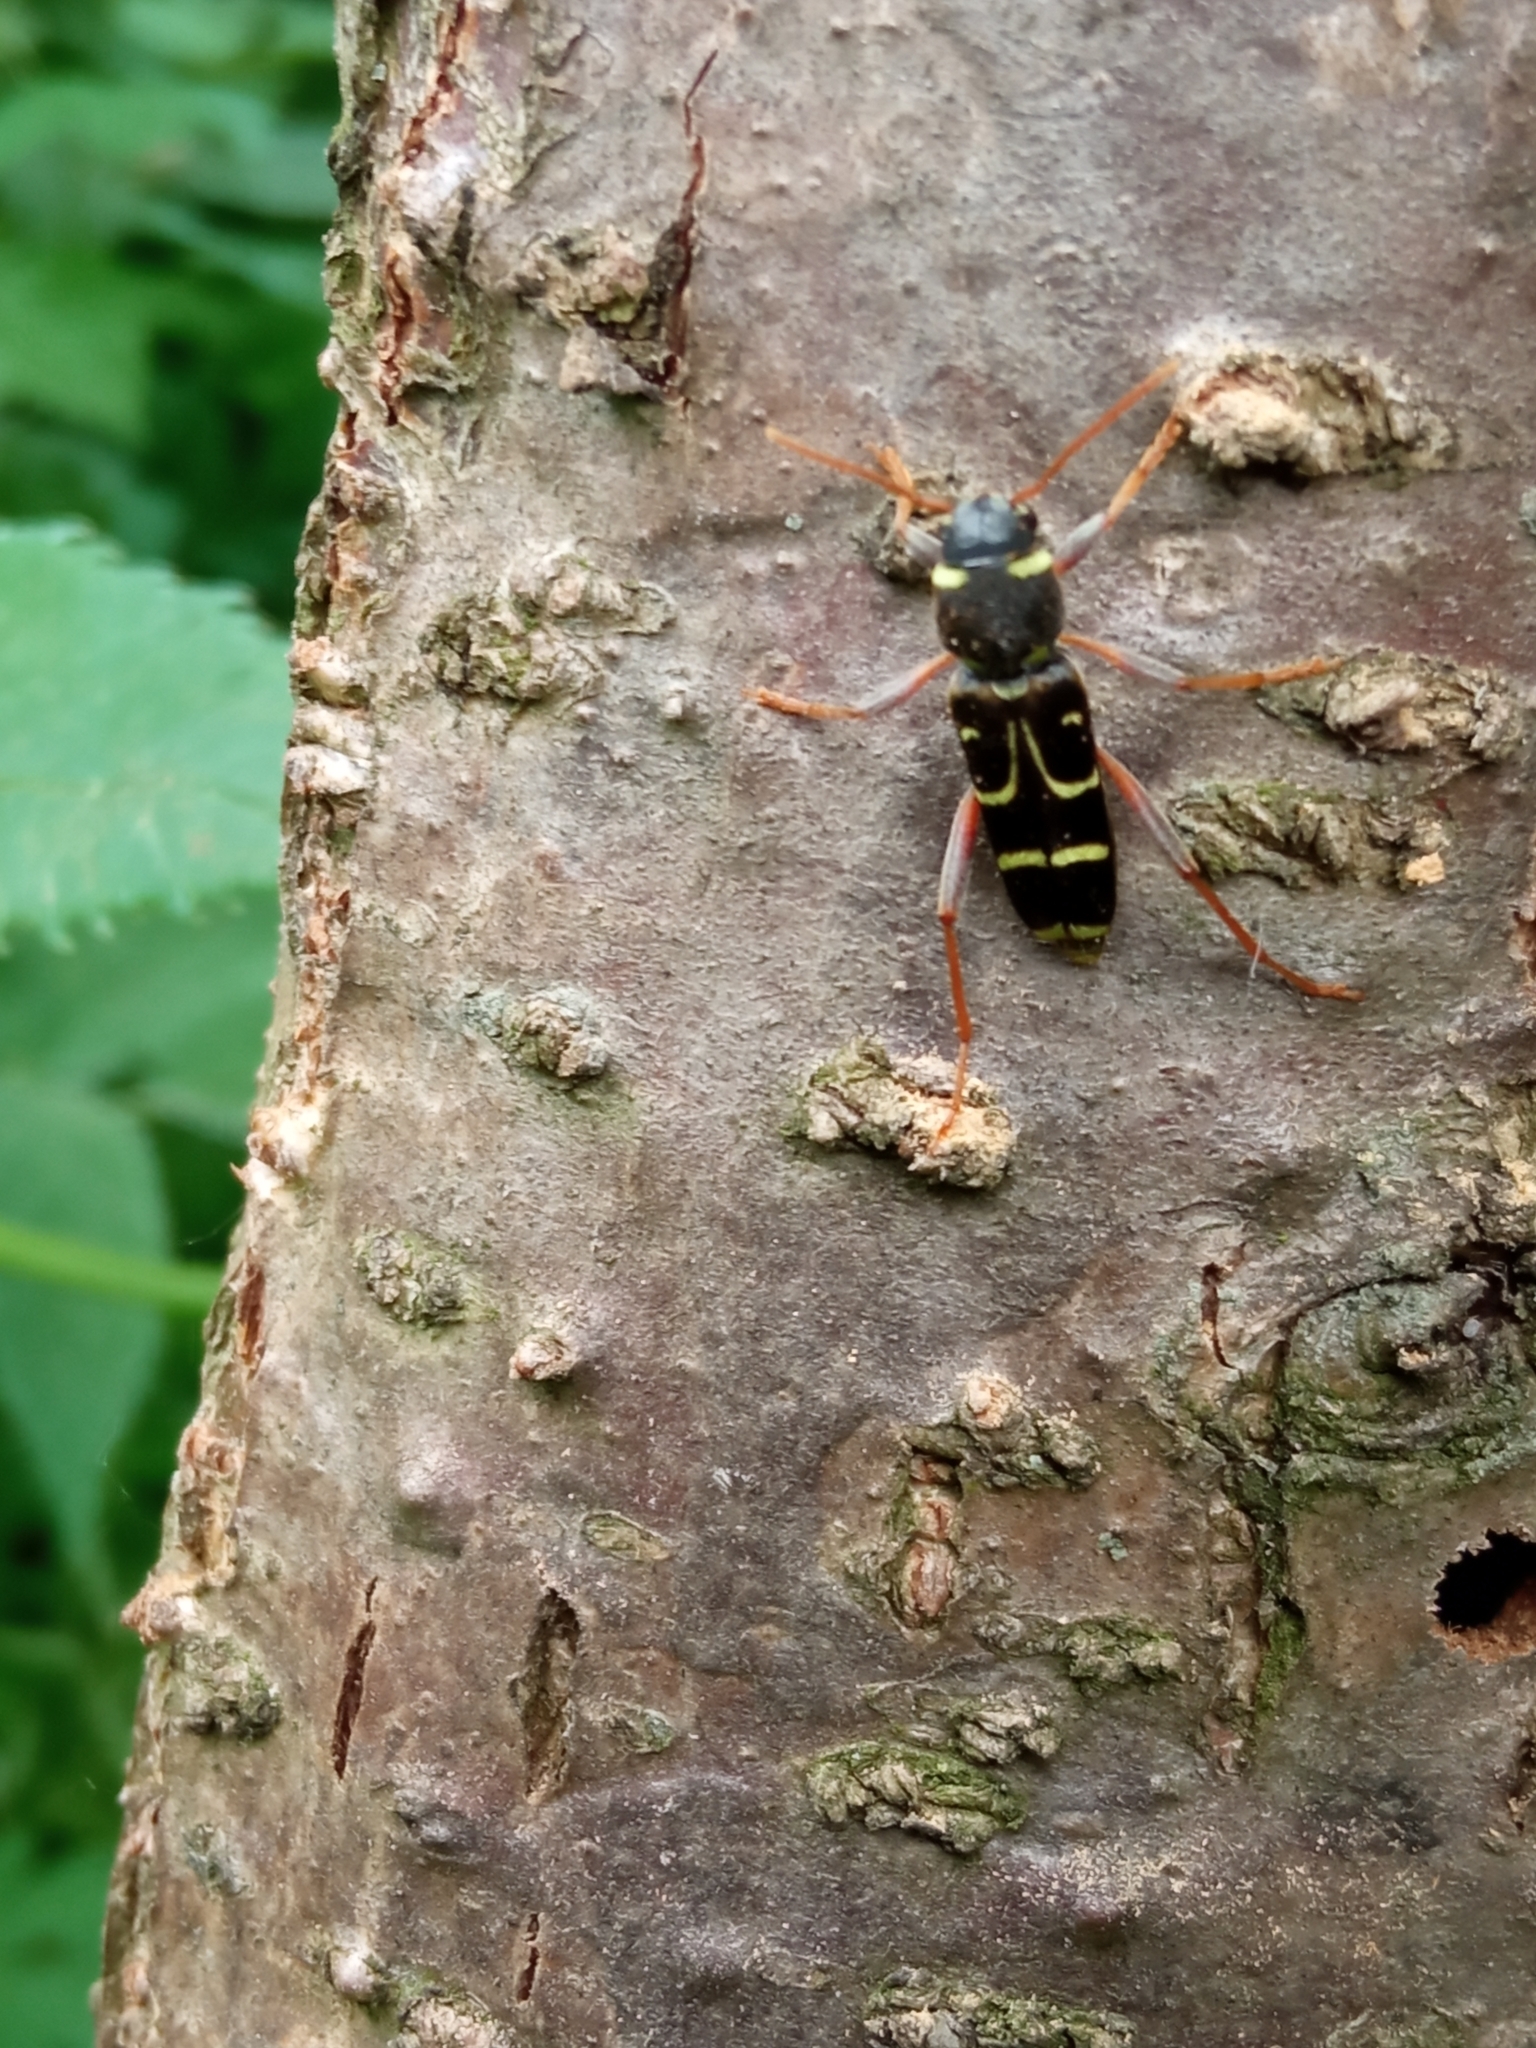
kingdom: Animalia
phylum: Arthropoda
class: Insecta
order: Coleoptera
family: Cerambycidae
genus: Xylotrechus
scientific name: Xylotrechus arvicola
